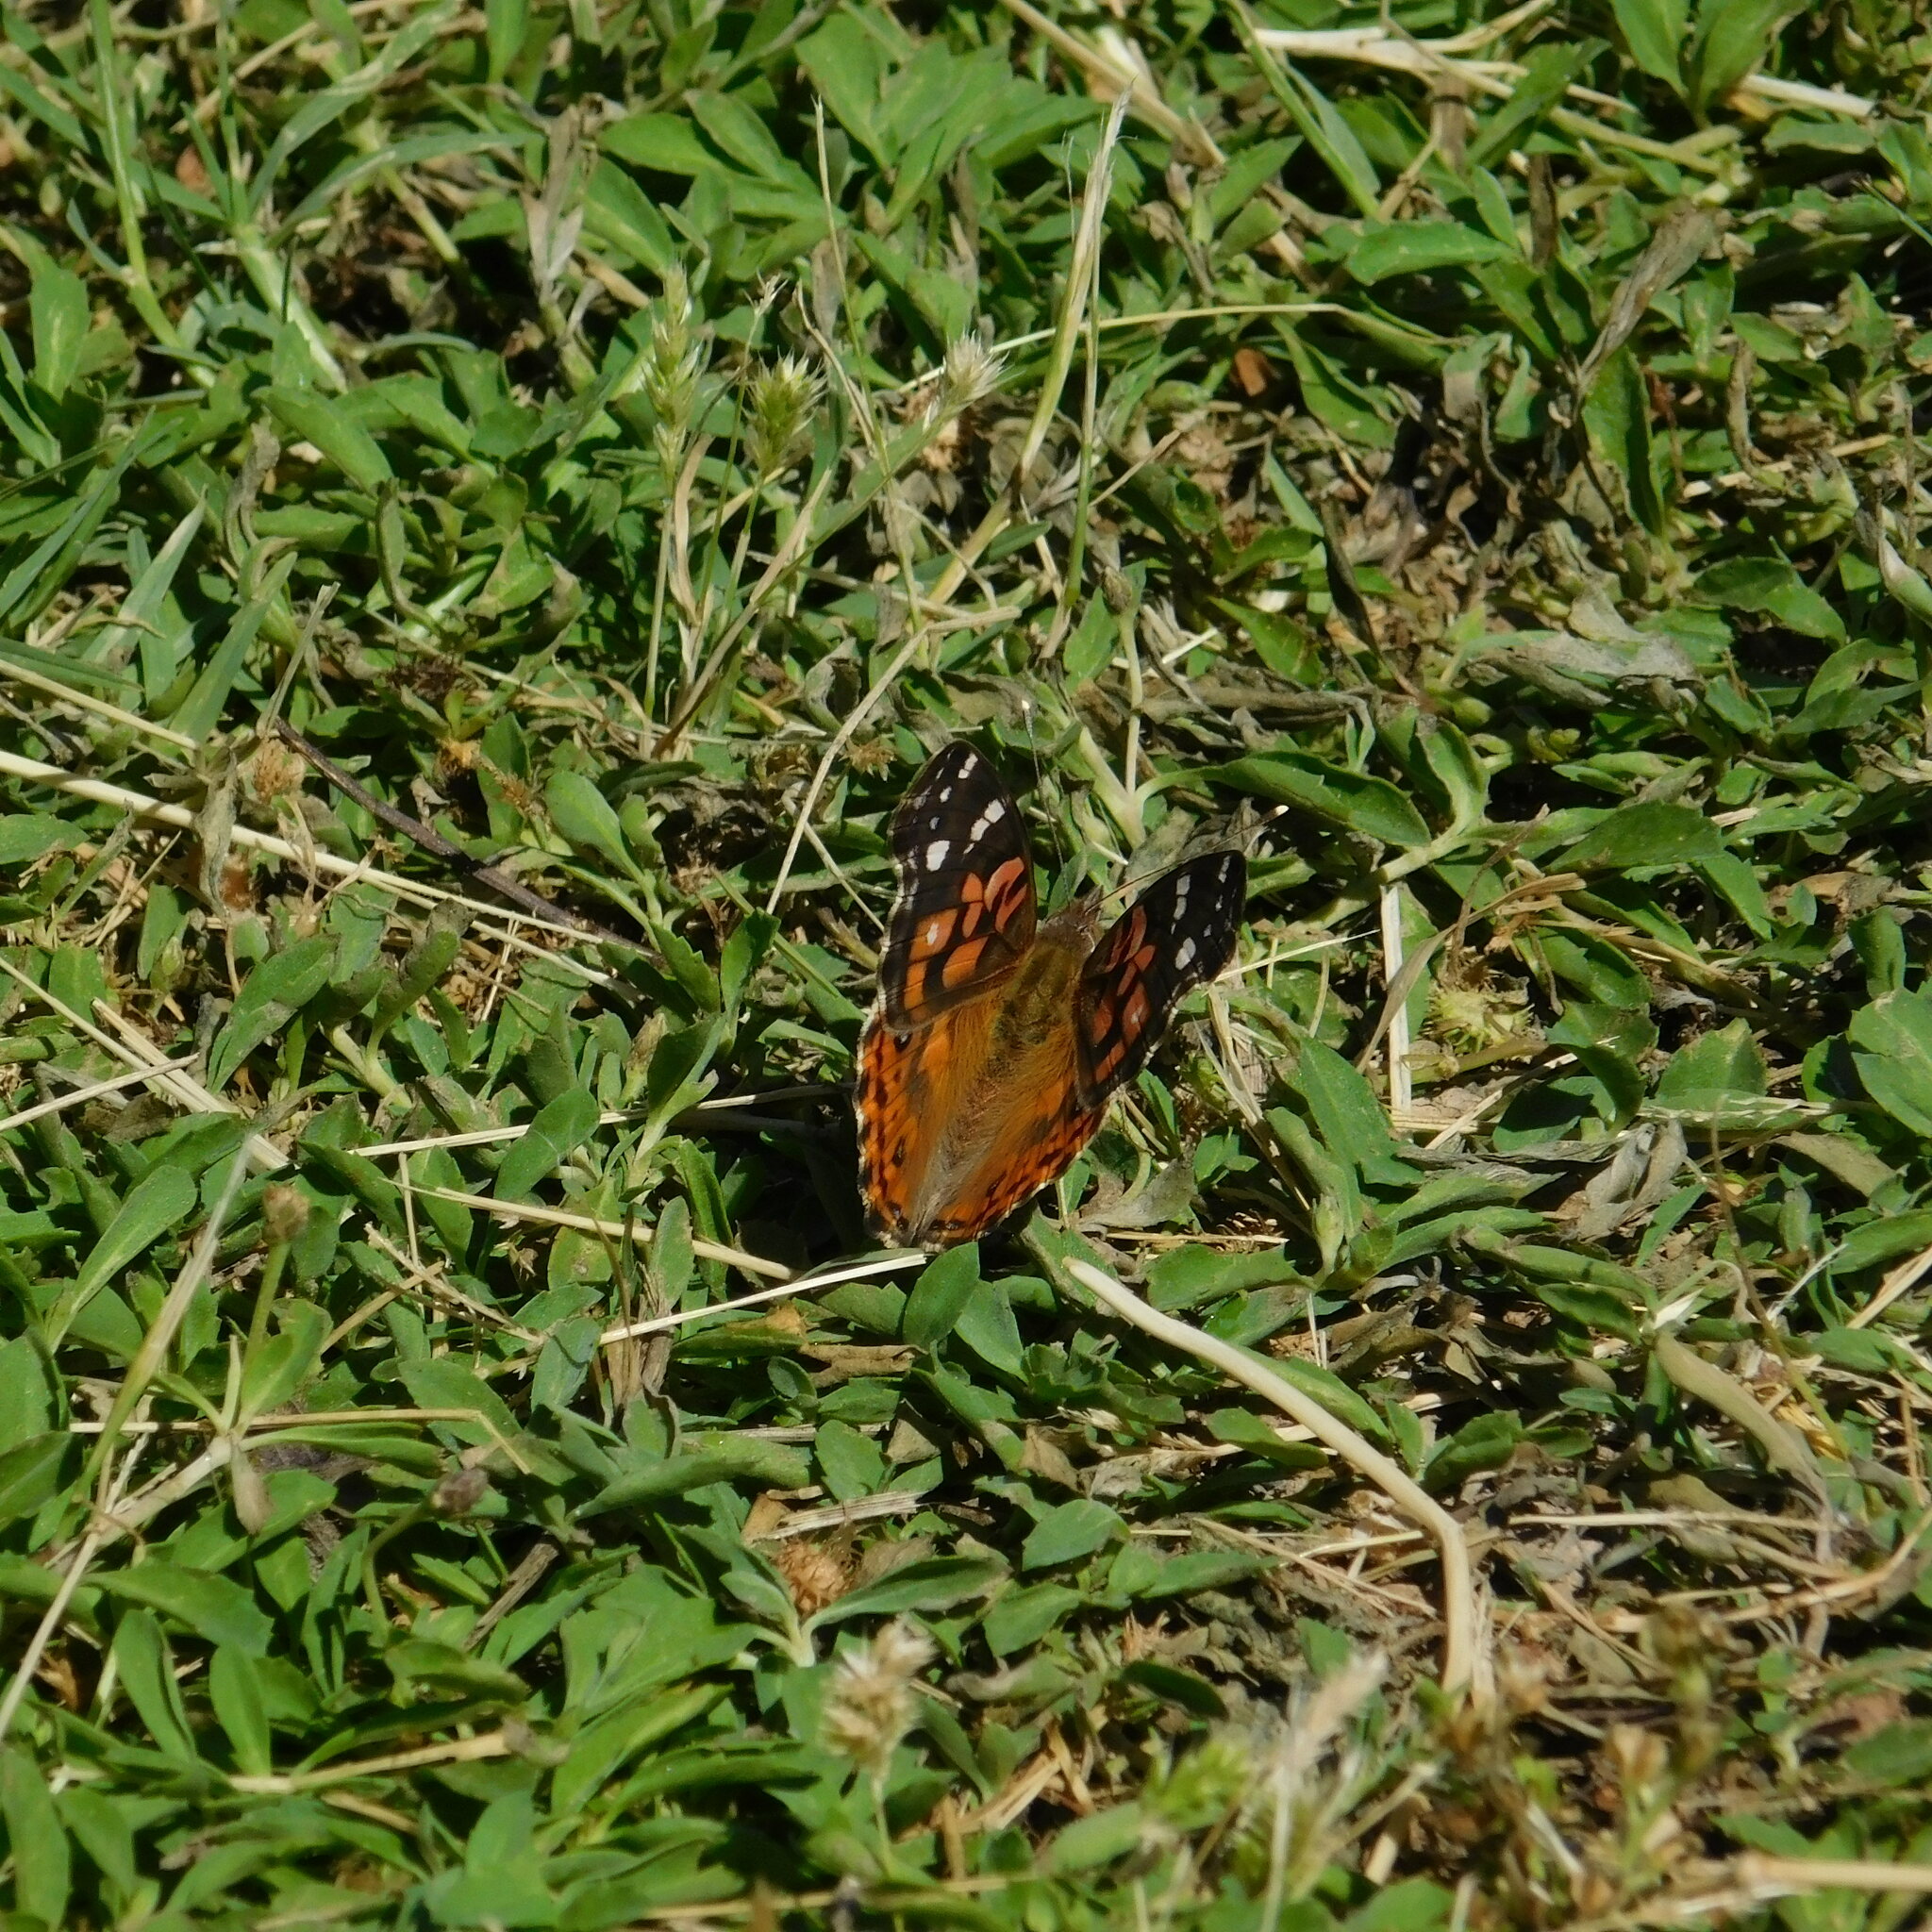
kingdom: Animalia
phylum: Arthropoda
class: Insecta
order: Lepidoptera
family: Nymphalidae
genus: Vanessa
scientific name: Vanessa braziliensis
